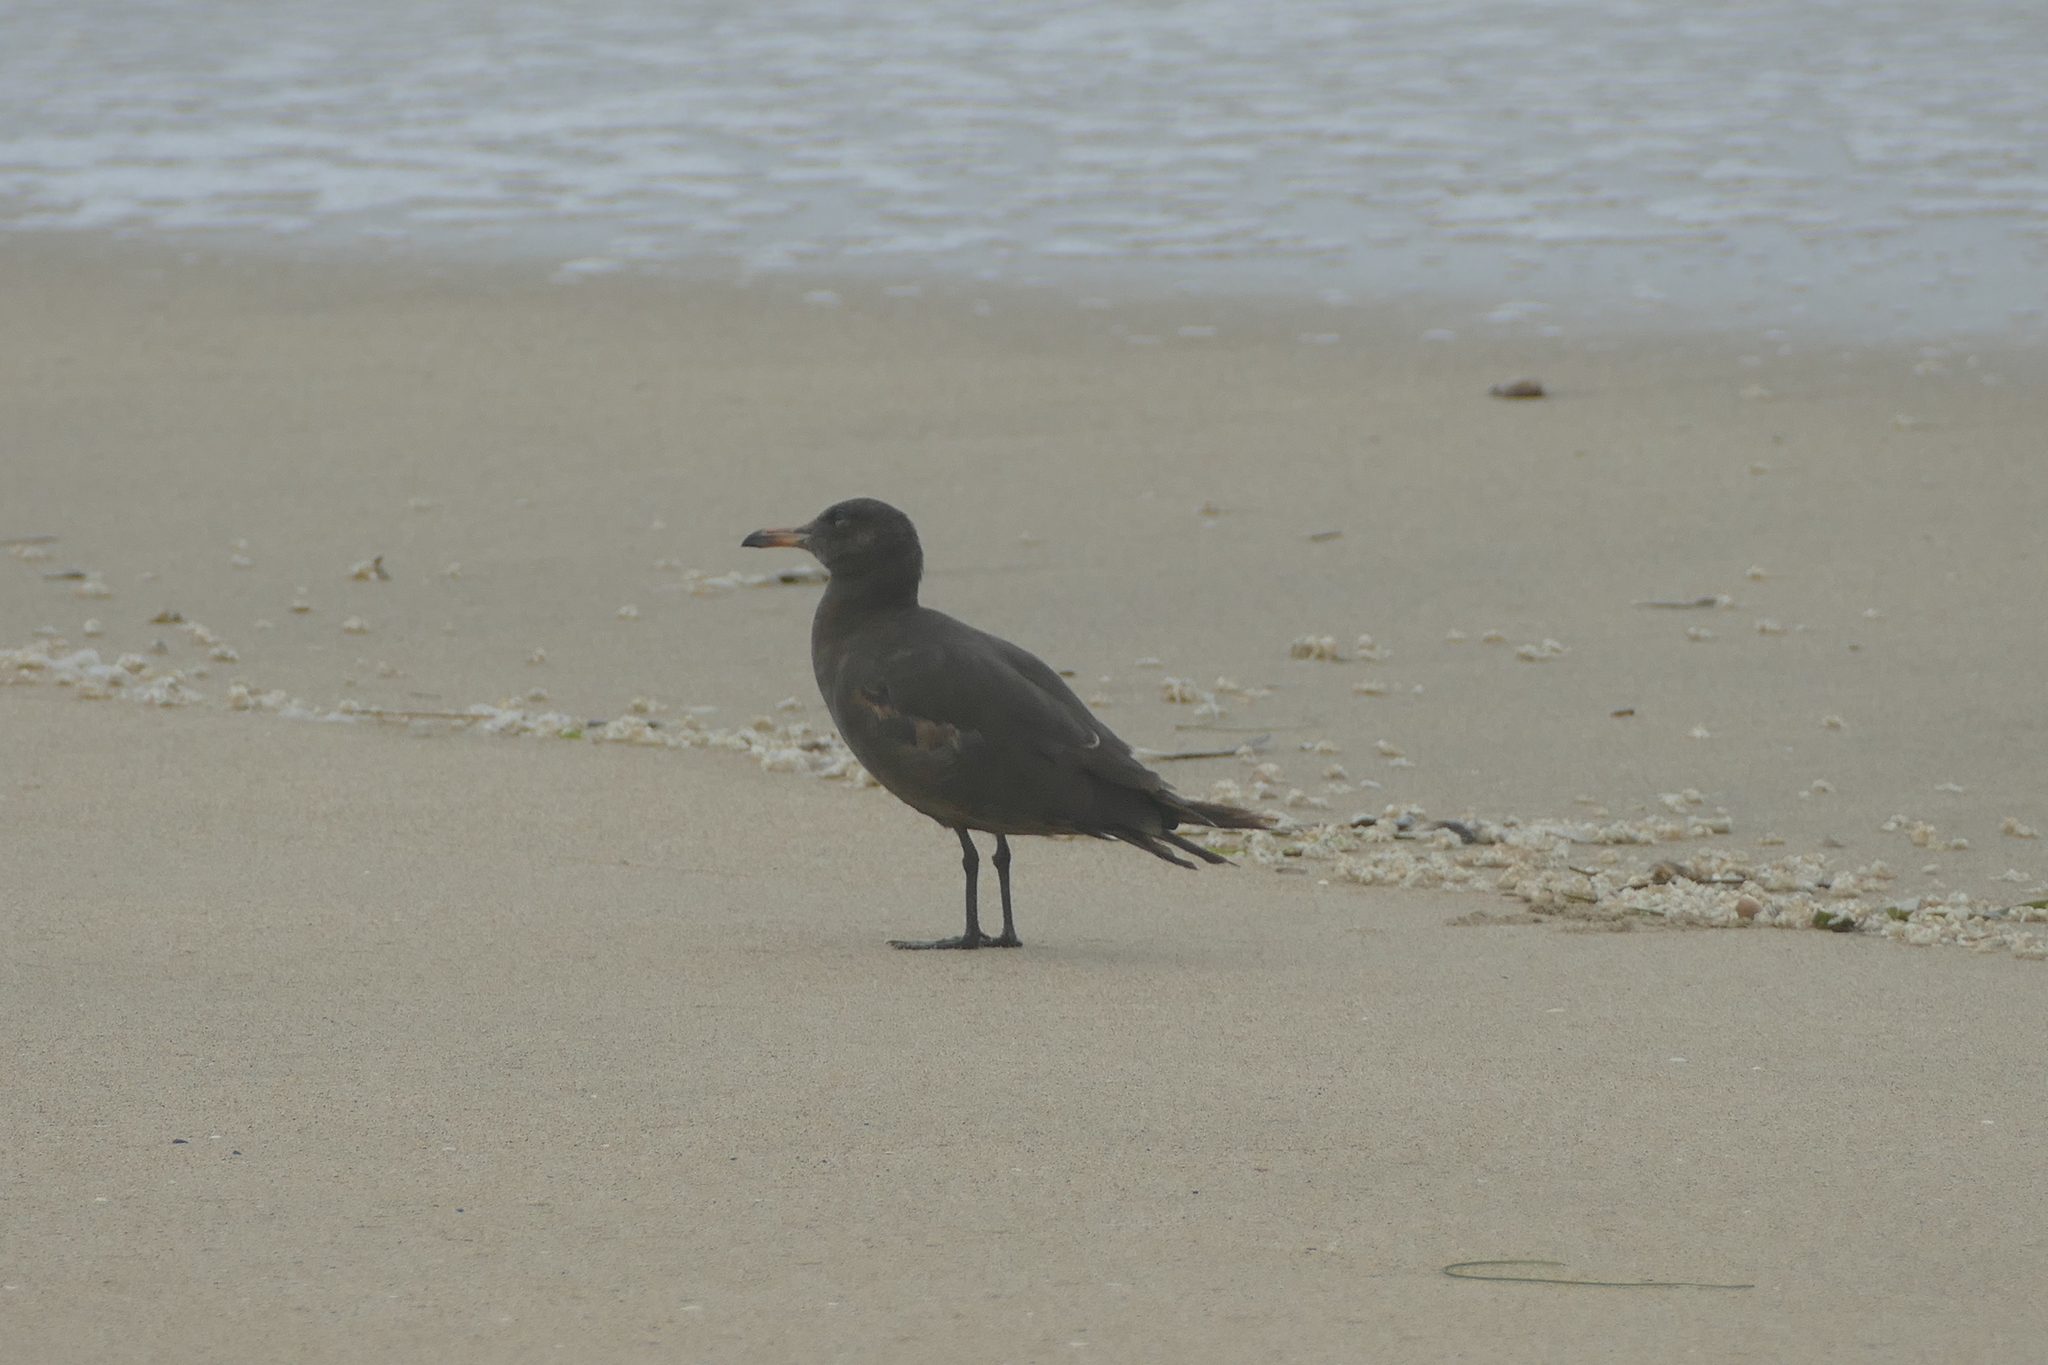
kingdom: Animalia
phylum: Chordata
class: Aves
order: Charadriiformes
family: Laridae
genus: Larus
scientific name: Larus heermanni
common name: Heermann's gull
